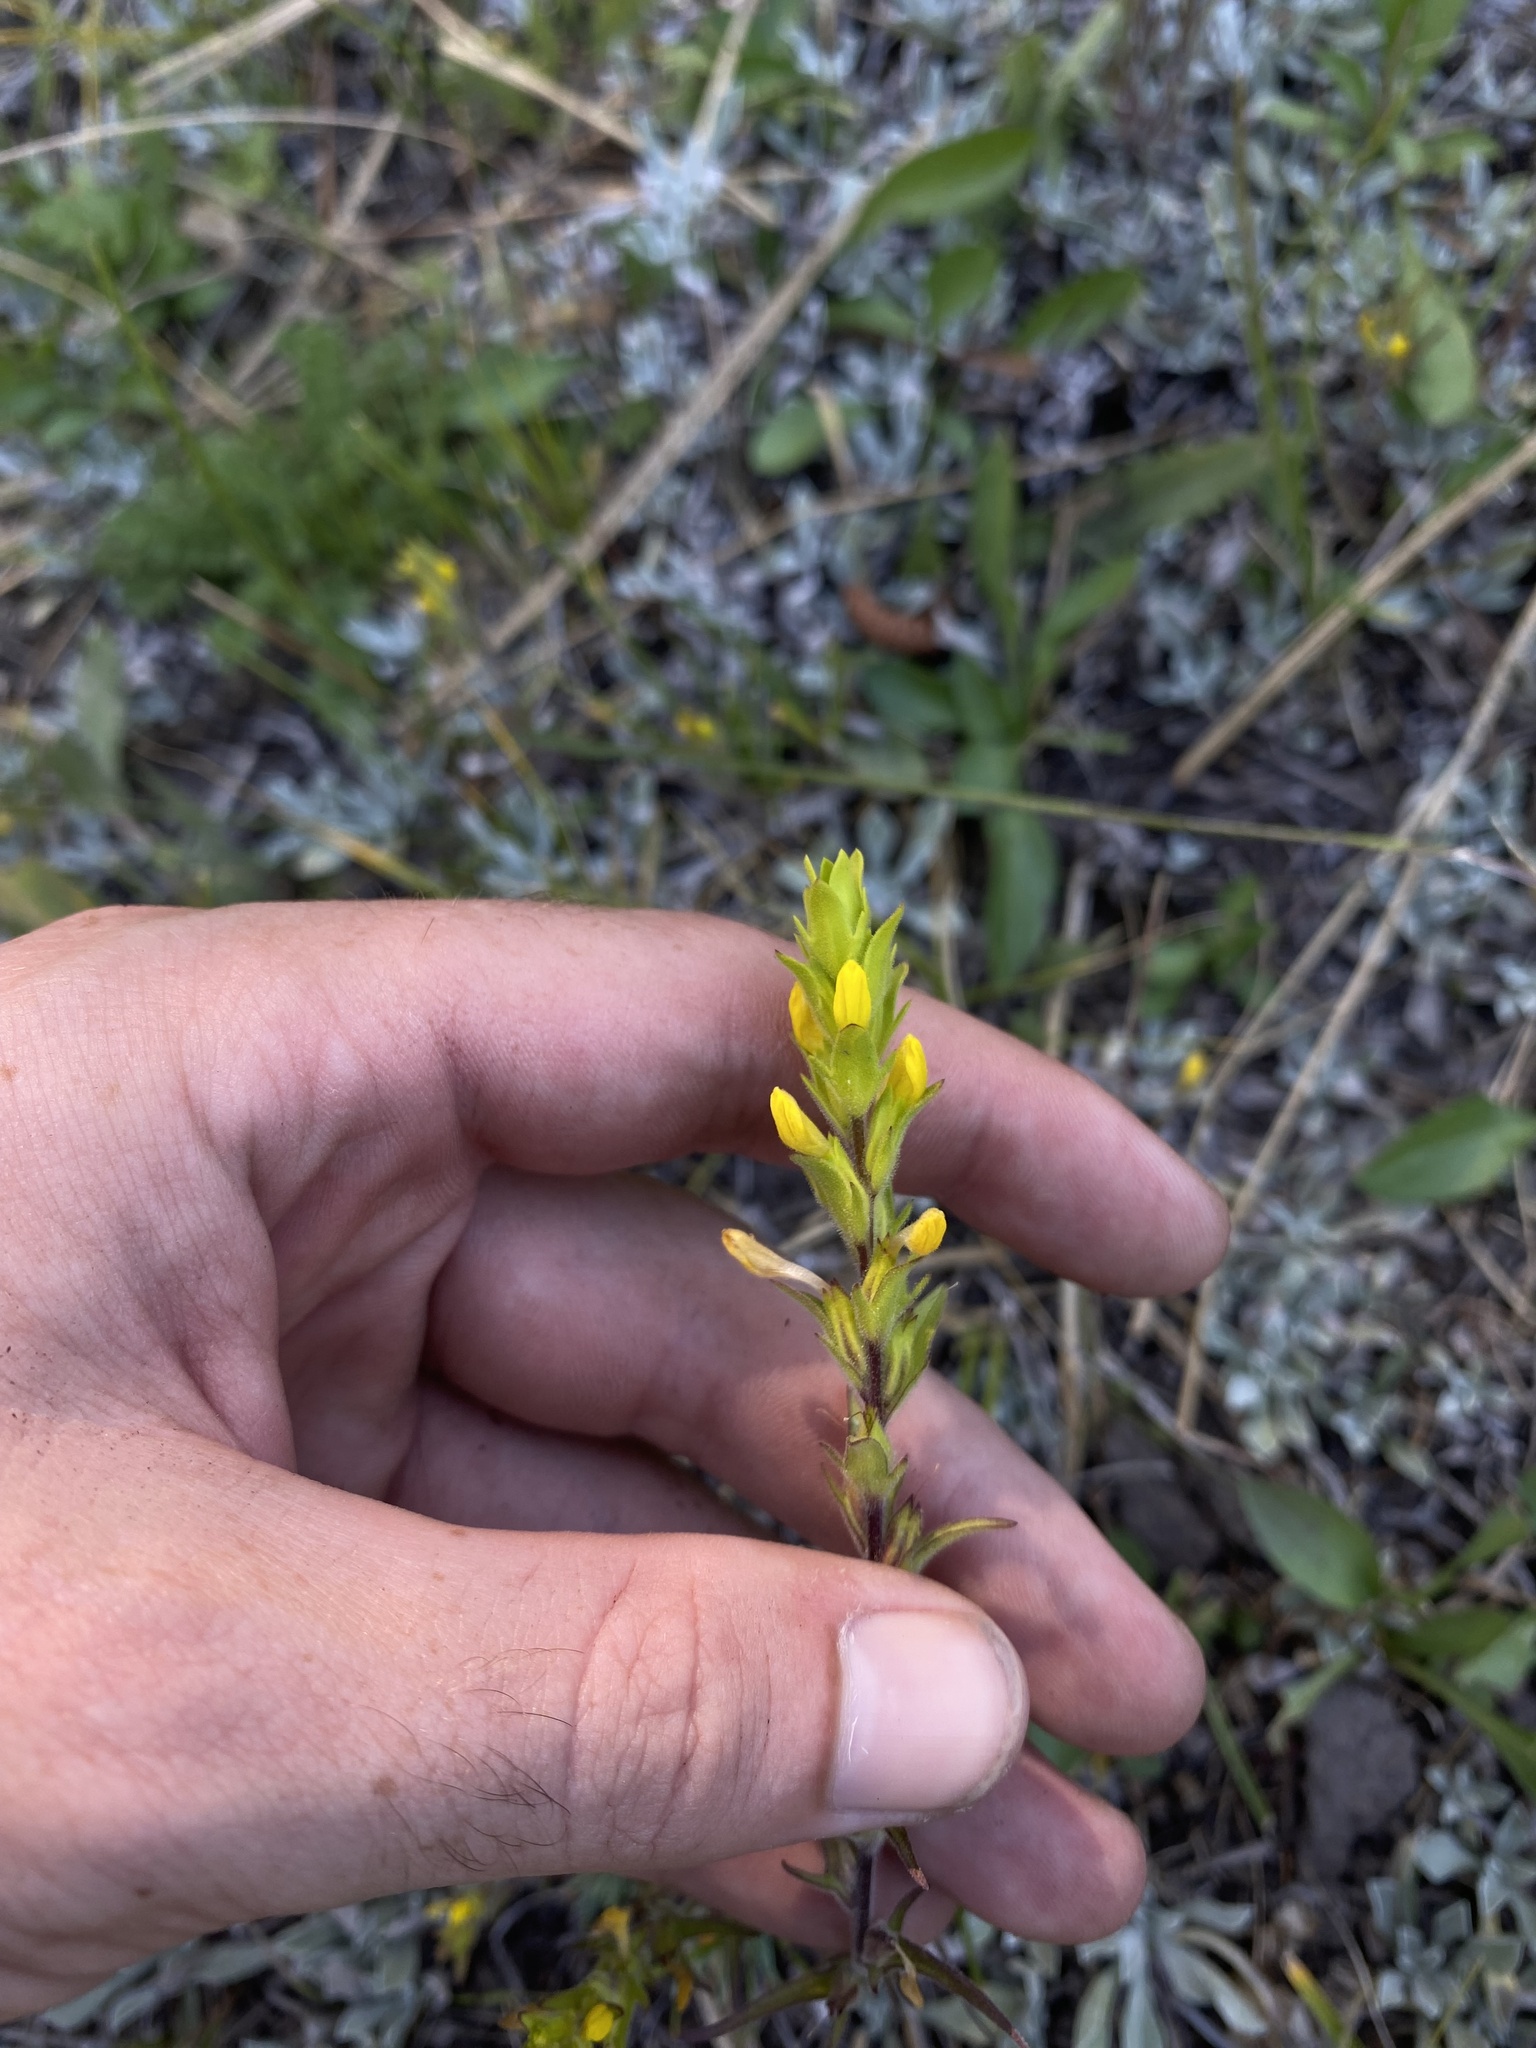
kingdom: Plantae
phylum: Tracheophyta
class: Magnoliopsida
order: Lamiales
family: Orobanchaceae
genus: Orthocarpus
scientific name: Orthocarpus luteus
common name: Golden-tongue owl's-clover
